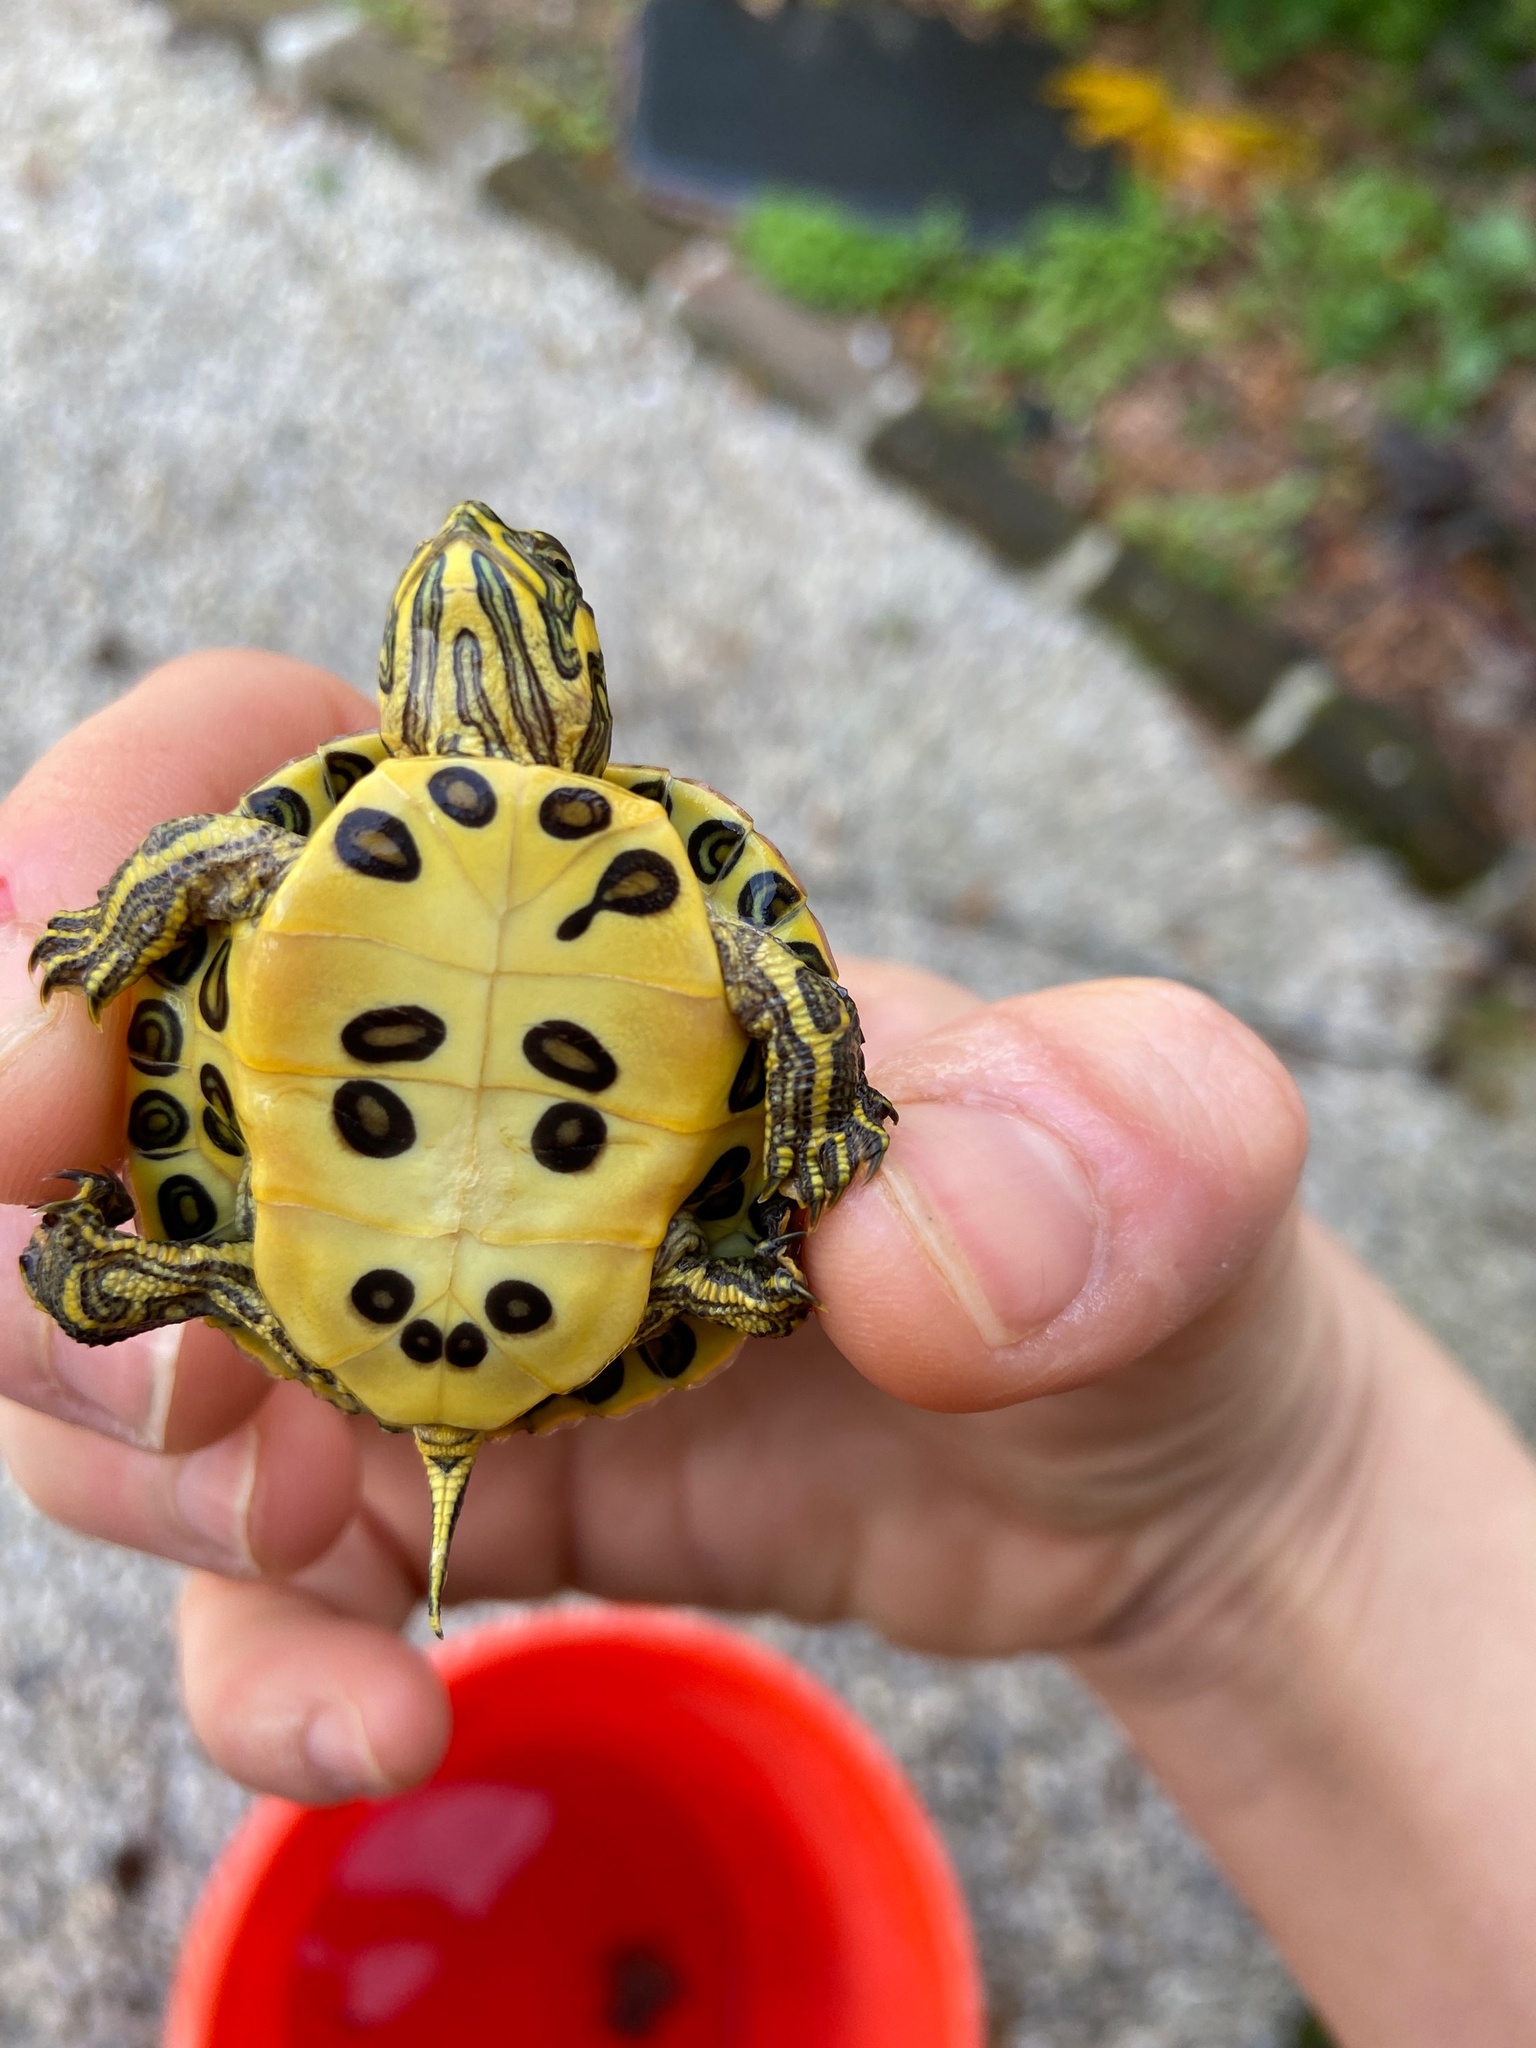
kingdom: Animalia
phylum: Chordata
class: Testudines
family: Emydidae
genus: Trachemys
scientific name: Trachemys scripta
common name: Slider
